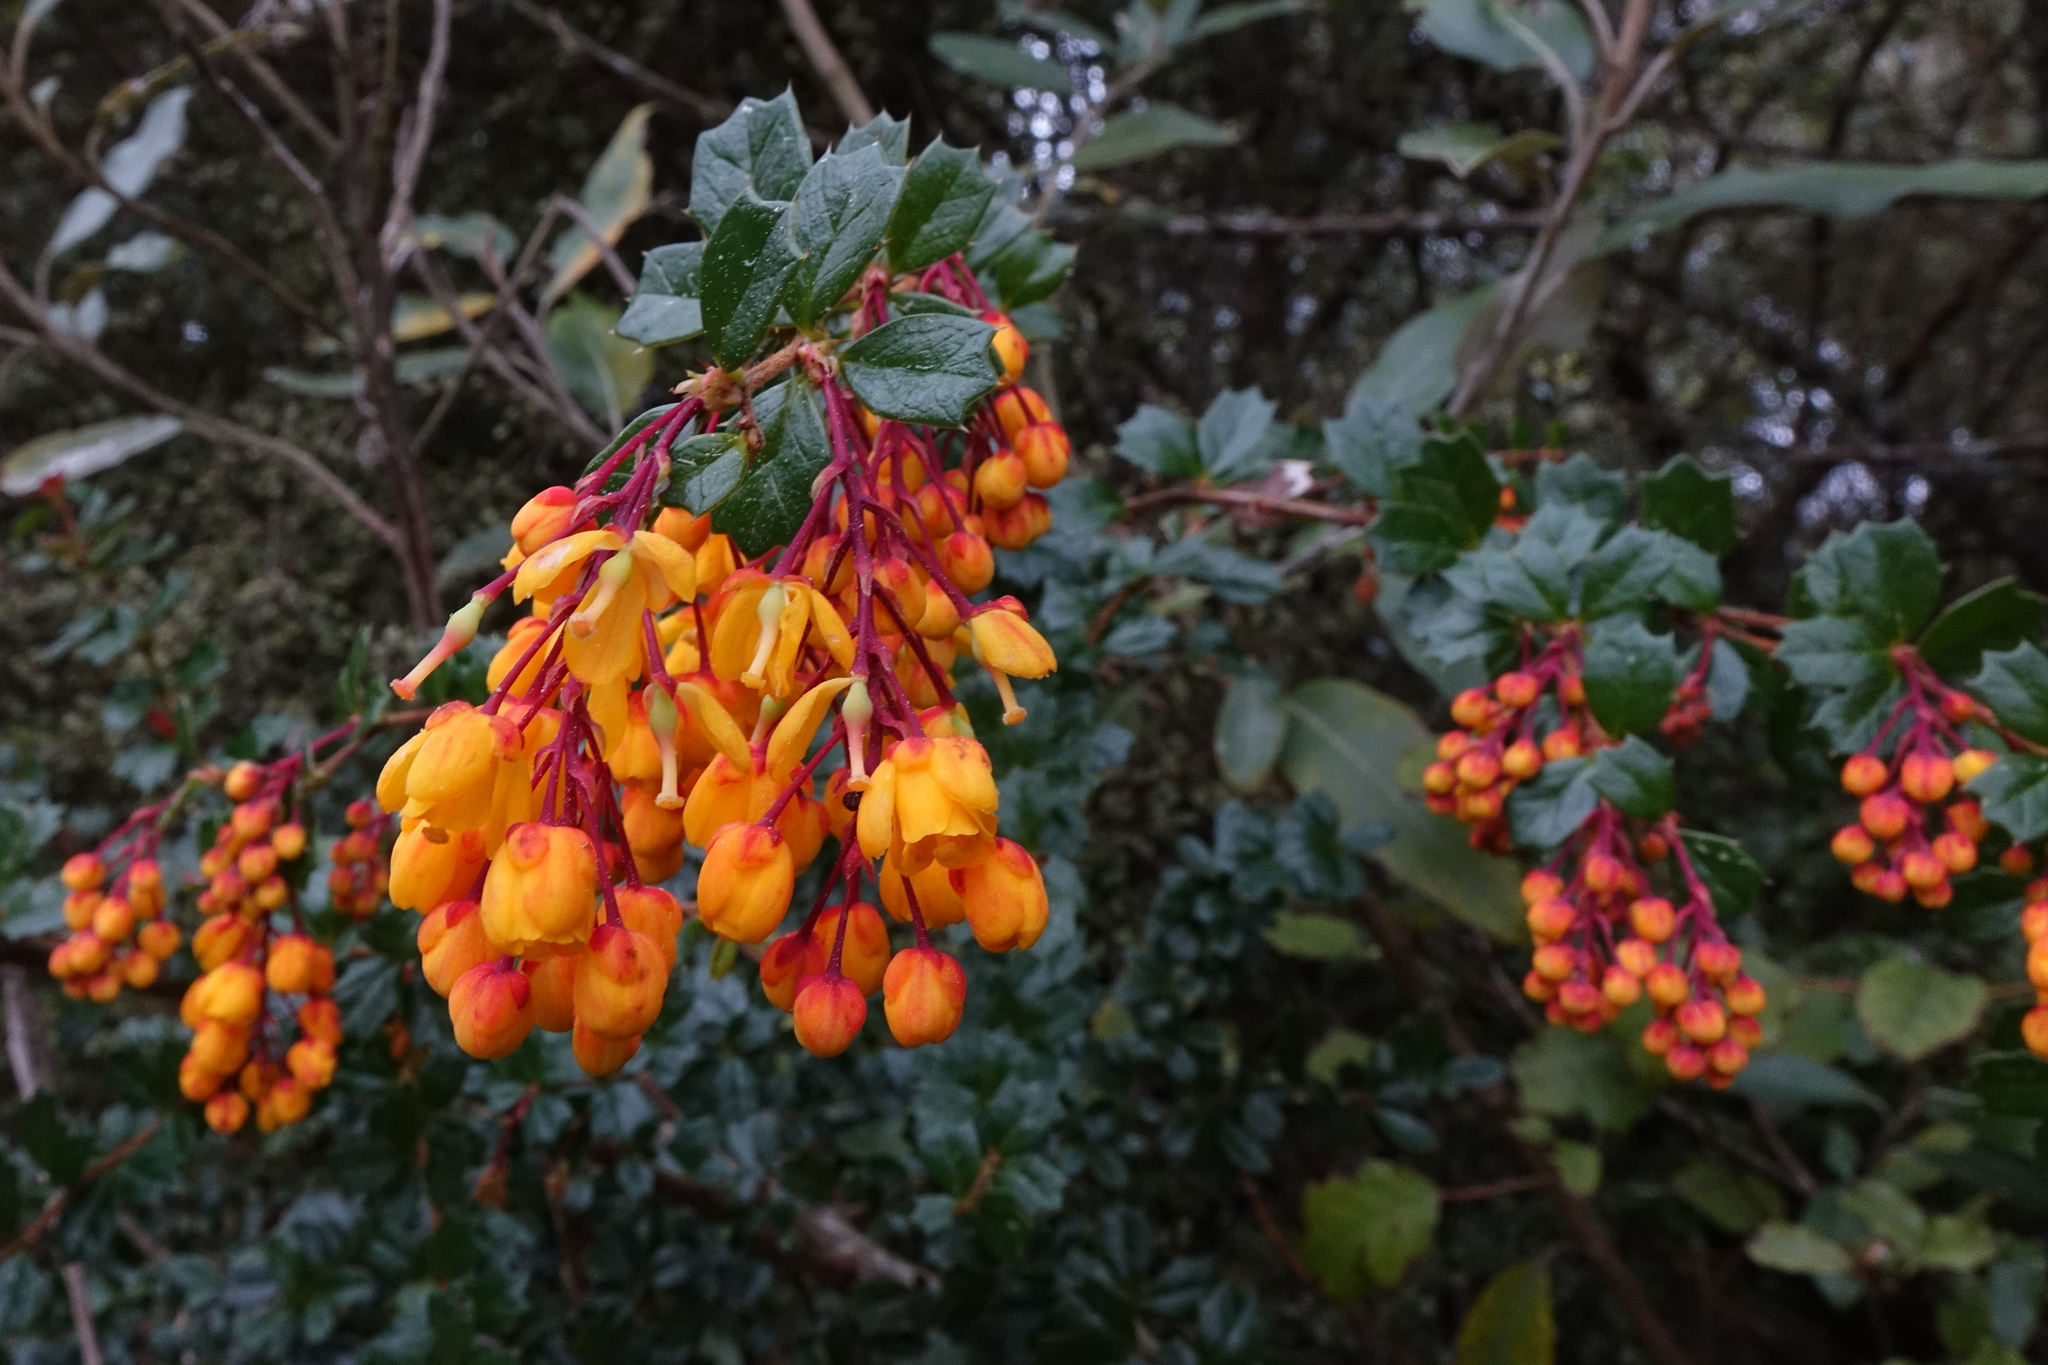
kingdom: Plantae
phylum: Tracheophyta
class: Magnoliopsida
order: Ranunculales
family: Berberidaceae
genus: Berberis
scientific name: Berberis darwinii
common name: Darwin's barberry
